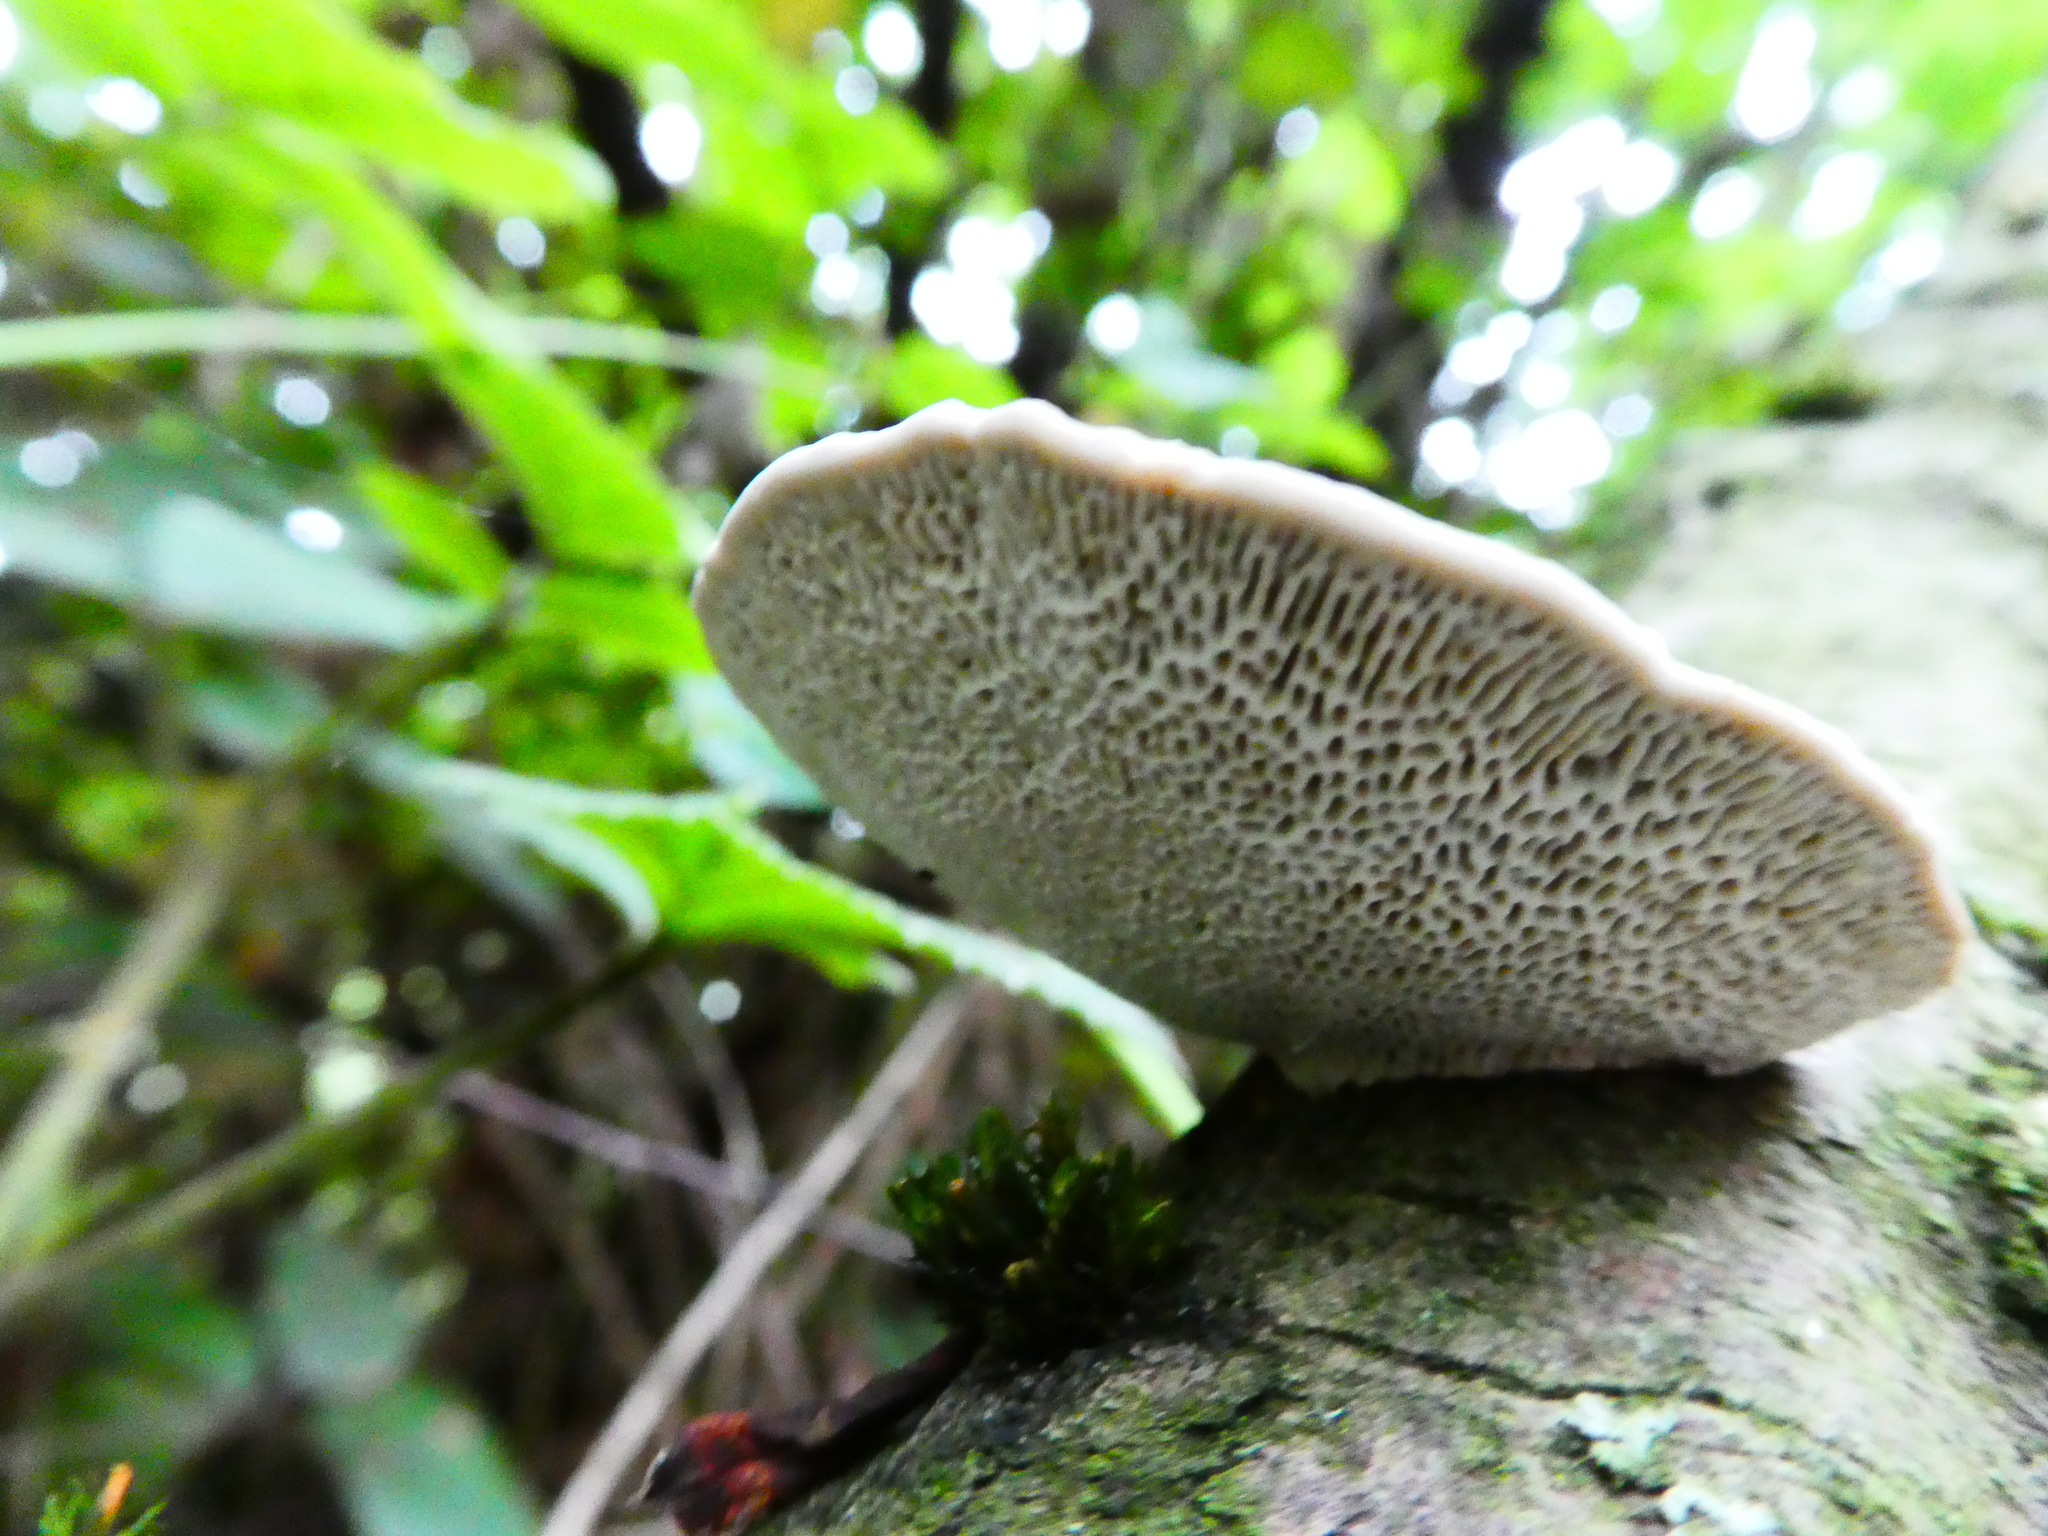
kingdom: Fungi
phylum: Basidiomycota
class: Agaricomycetes
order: Polyporales
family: Polyporaceae
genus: Daedaleopsis
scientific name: Daedaleopsis confragosa
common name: Blushing bracket
